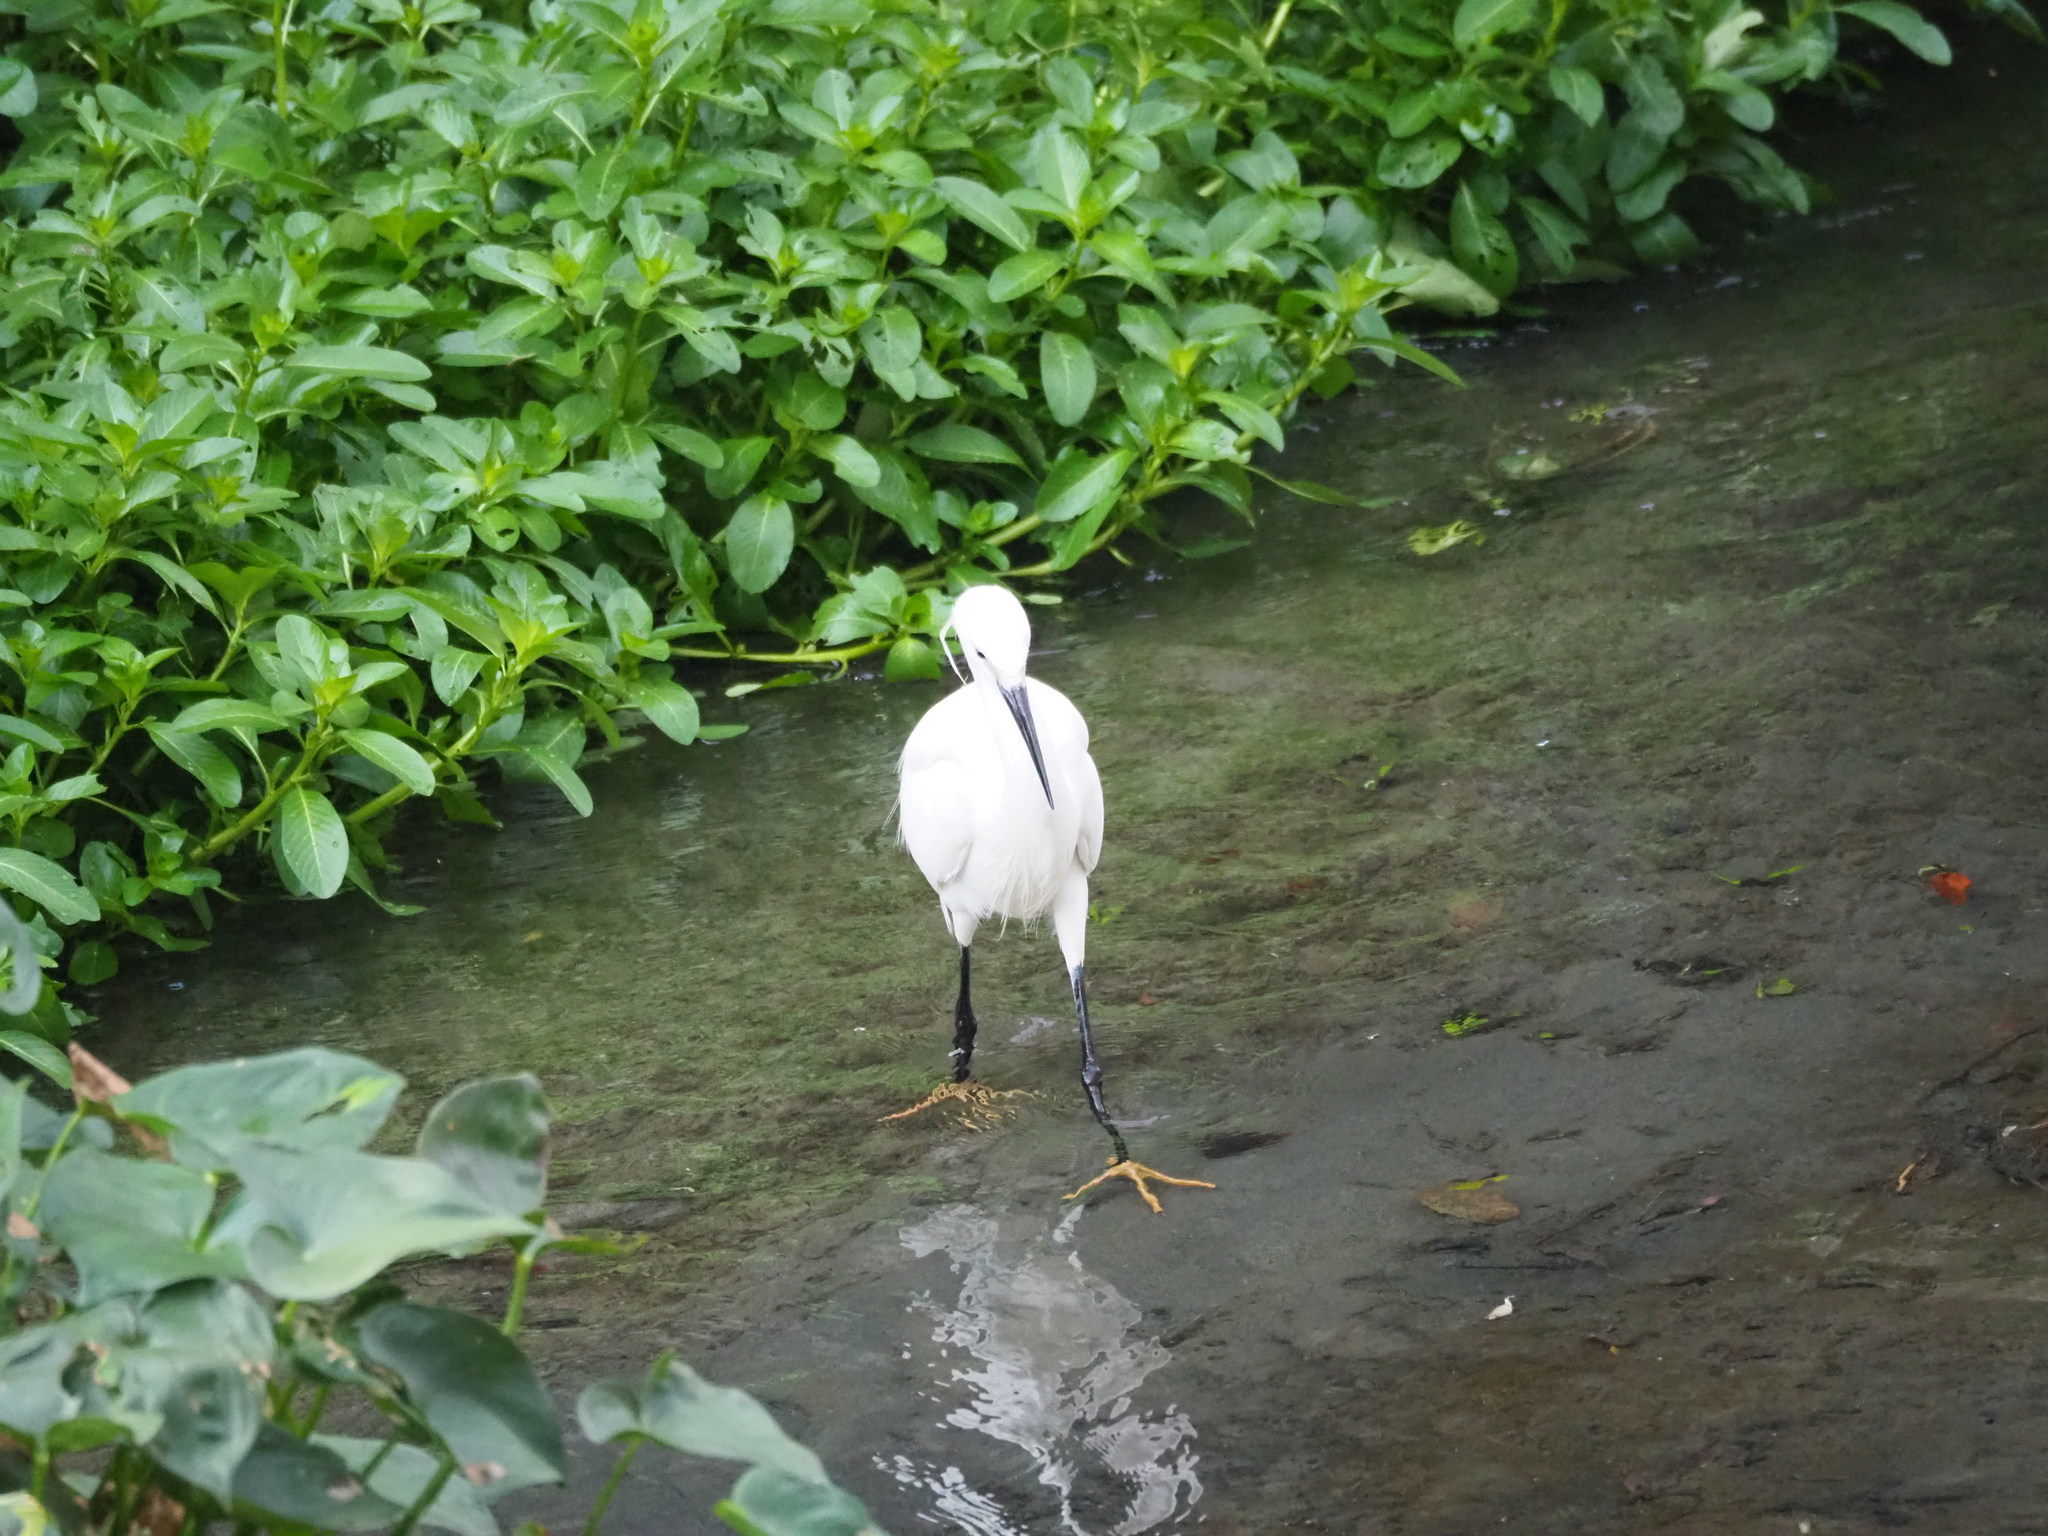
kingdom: Animalia
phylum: Chordata
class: Aves
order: Pelecaniformes
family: Ardeidae
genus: Egretta
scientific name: Egretta garzetta
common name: Little egret
